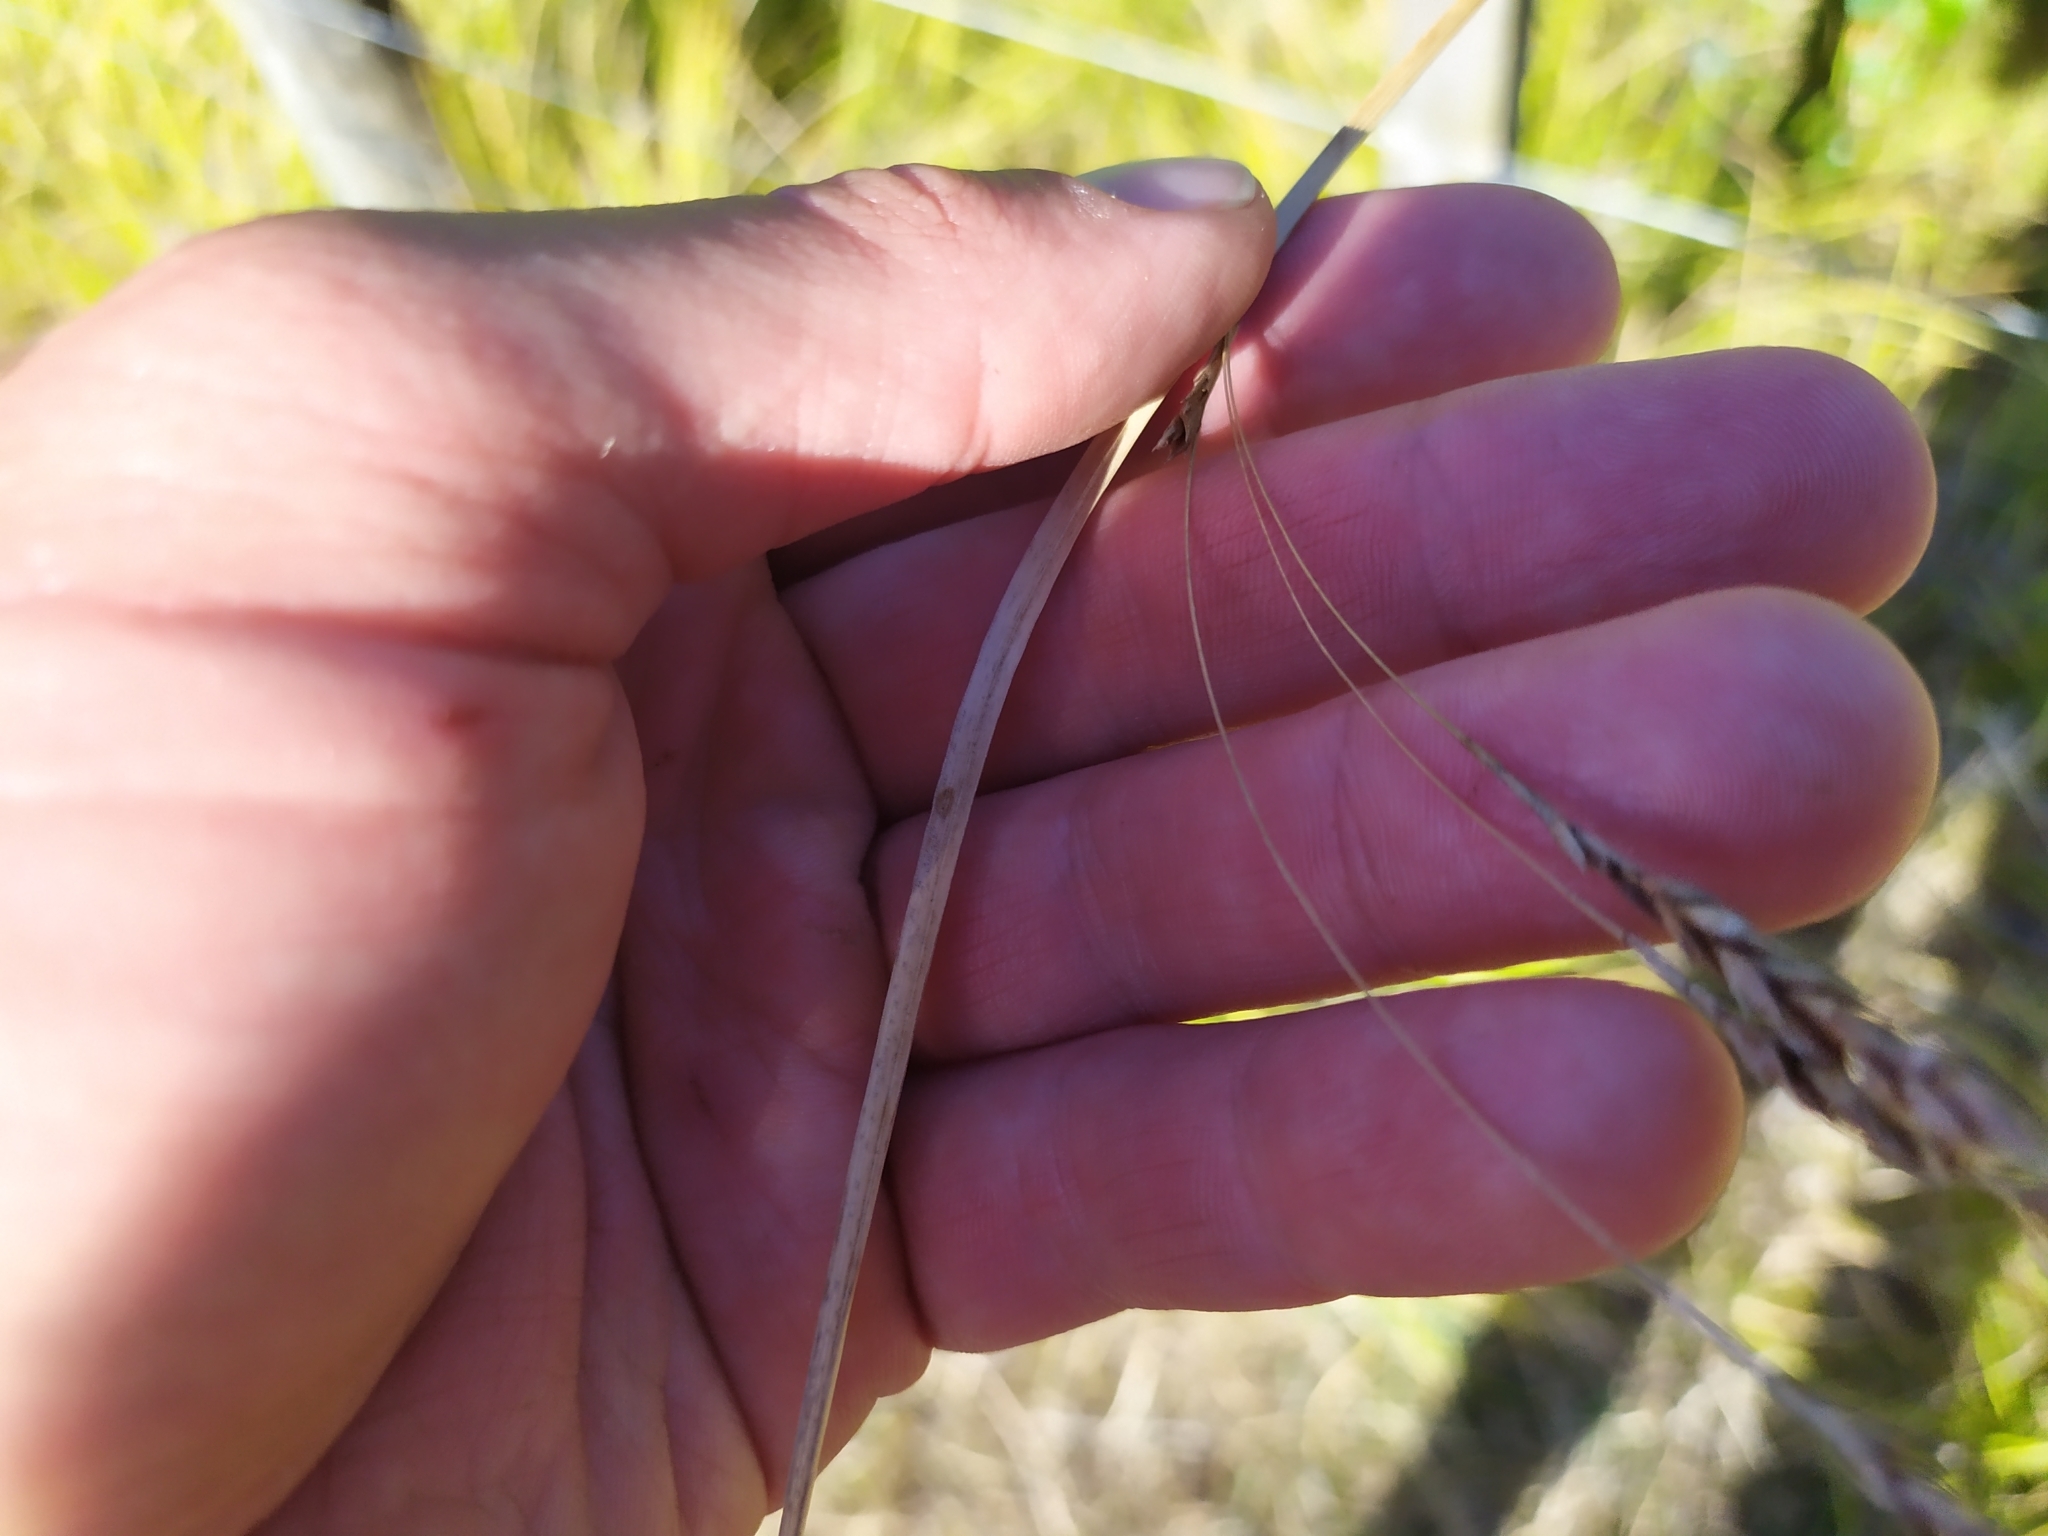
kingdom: Plantae
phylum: Tracheophyta
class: Liliopsida
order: Poales
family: Cyperaceae
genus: Carex
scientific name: Carex longebrachiata
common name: Drooping sedge
